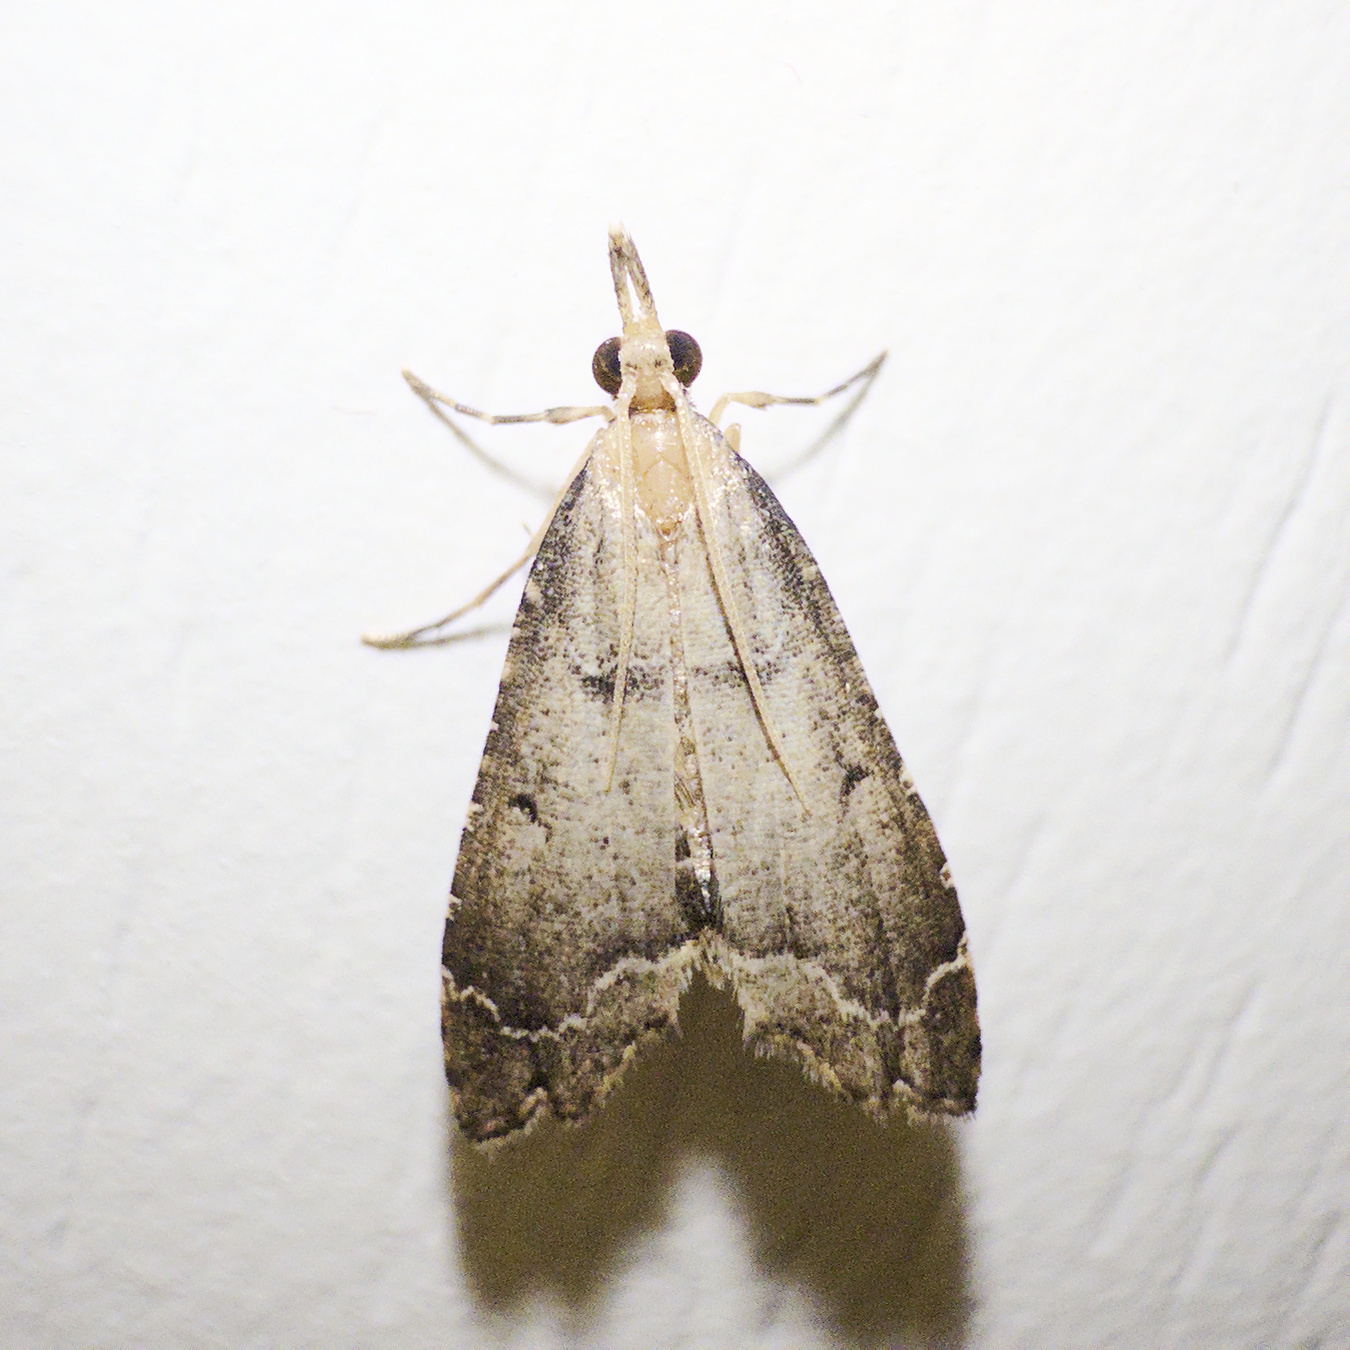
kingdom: Animalia
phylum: Arthropoda
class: Insecta
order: Lepidoptera
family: Crambidae
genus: Diplopseustis
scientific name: Diplopseustis perieresalis
